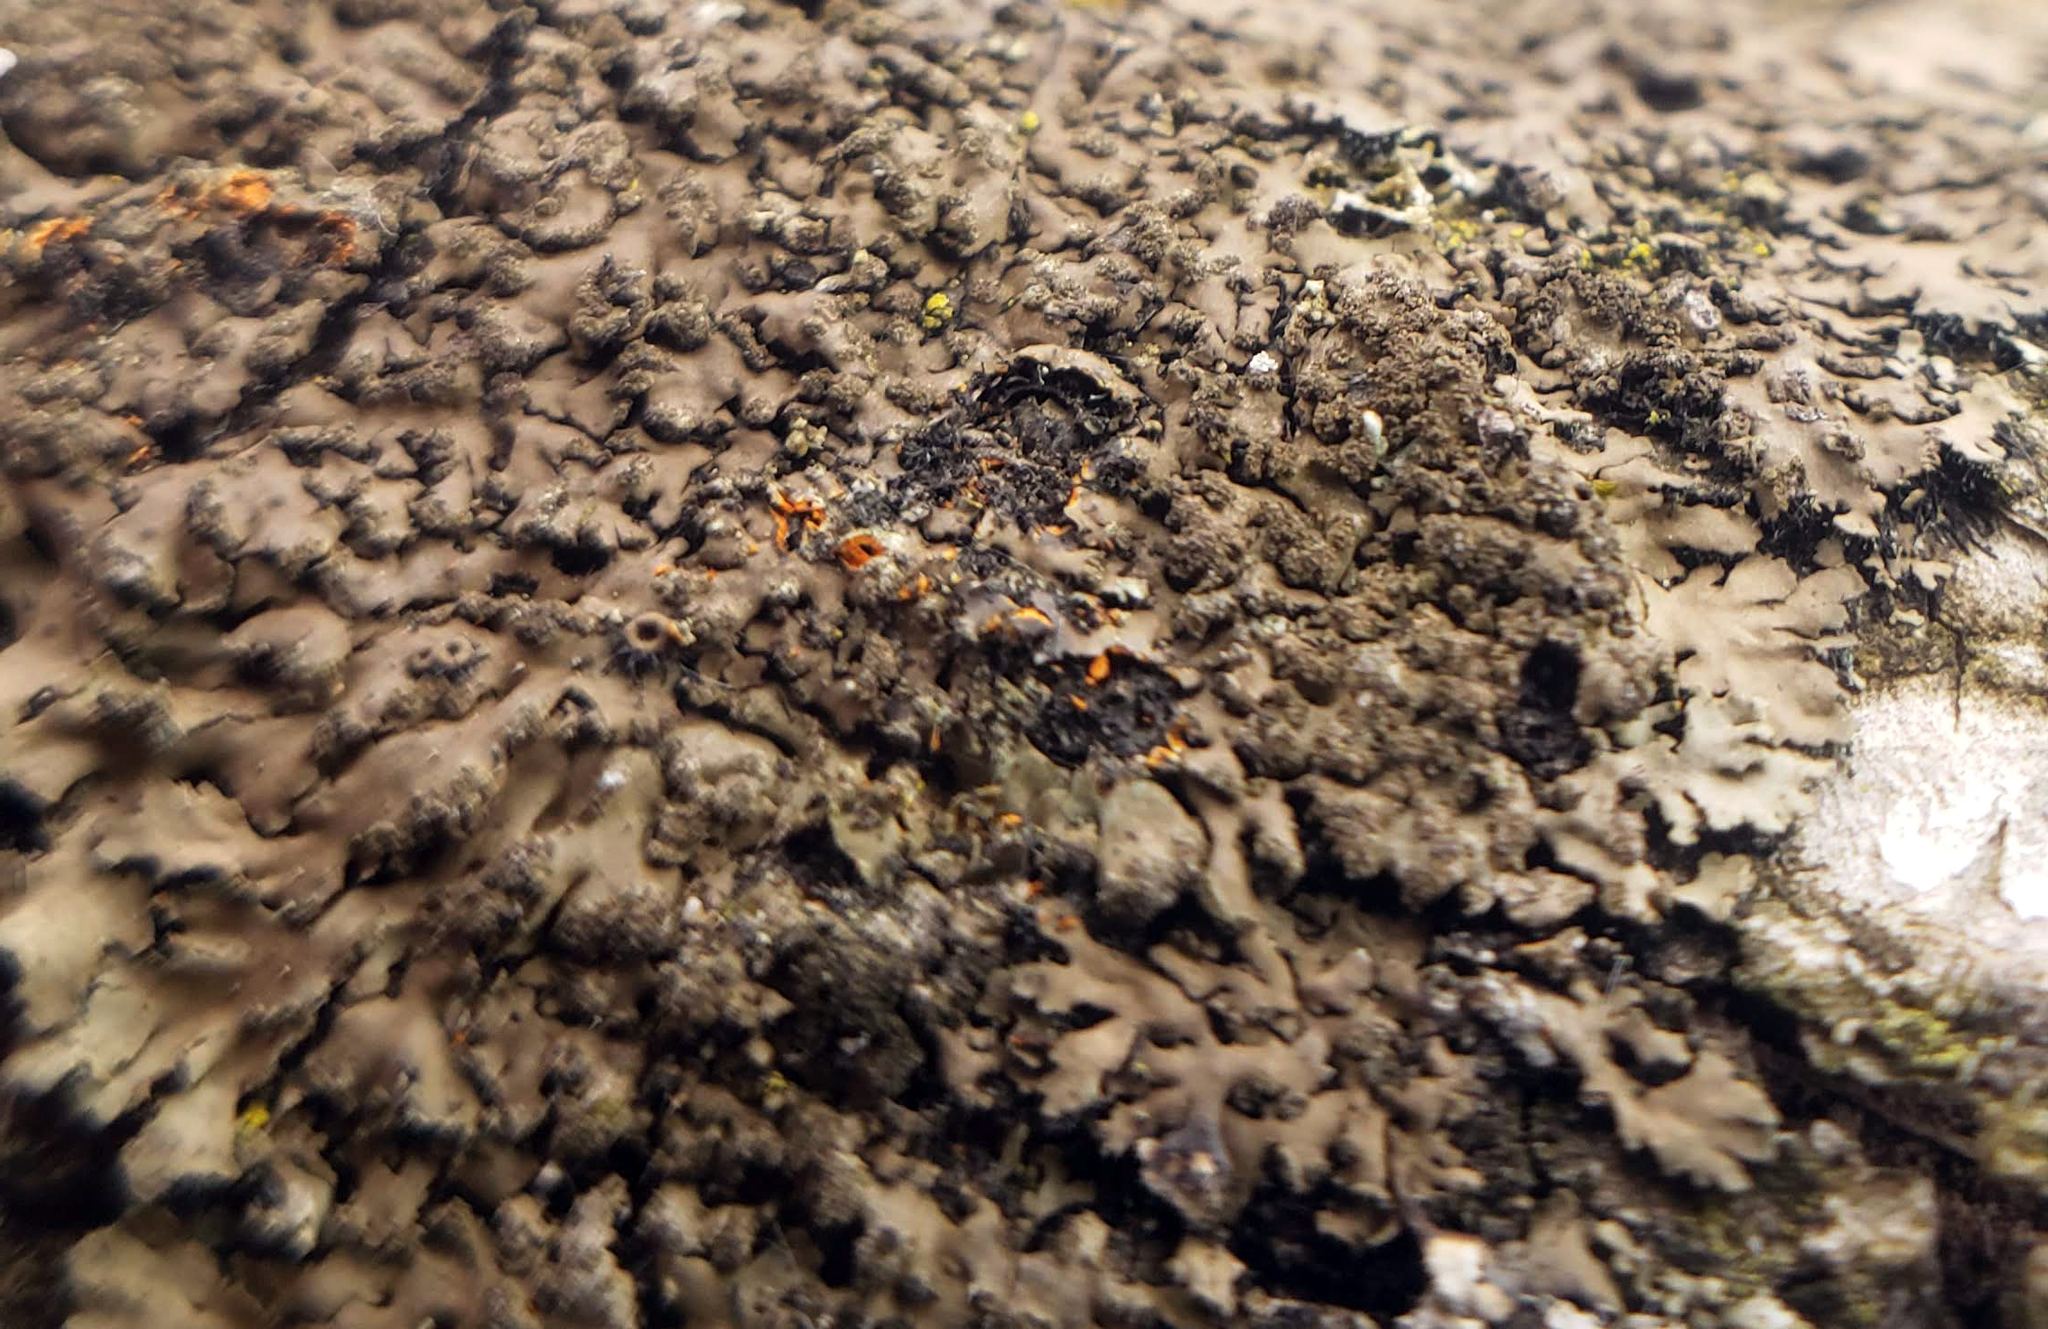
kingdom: Fungi
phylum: Ascomycota
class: Lecanoromycetes
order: Caliciales
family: Physciaceae
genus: Phaeophyscia
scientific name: Phaeophyscia rubropulchra
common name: Orange-cored shadow lichen
